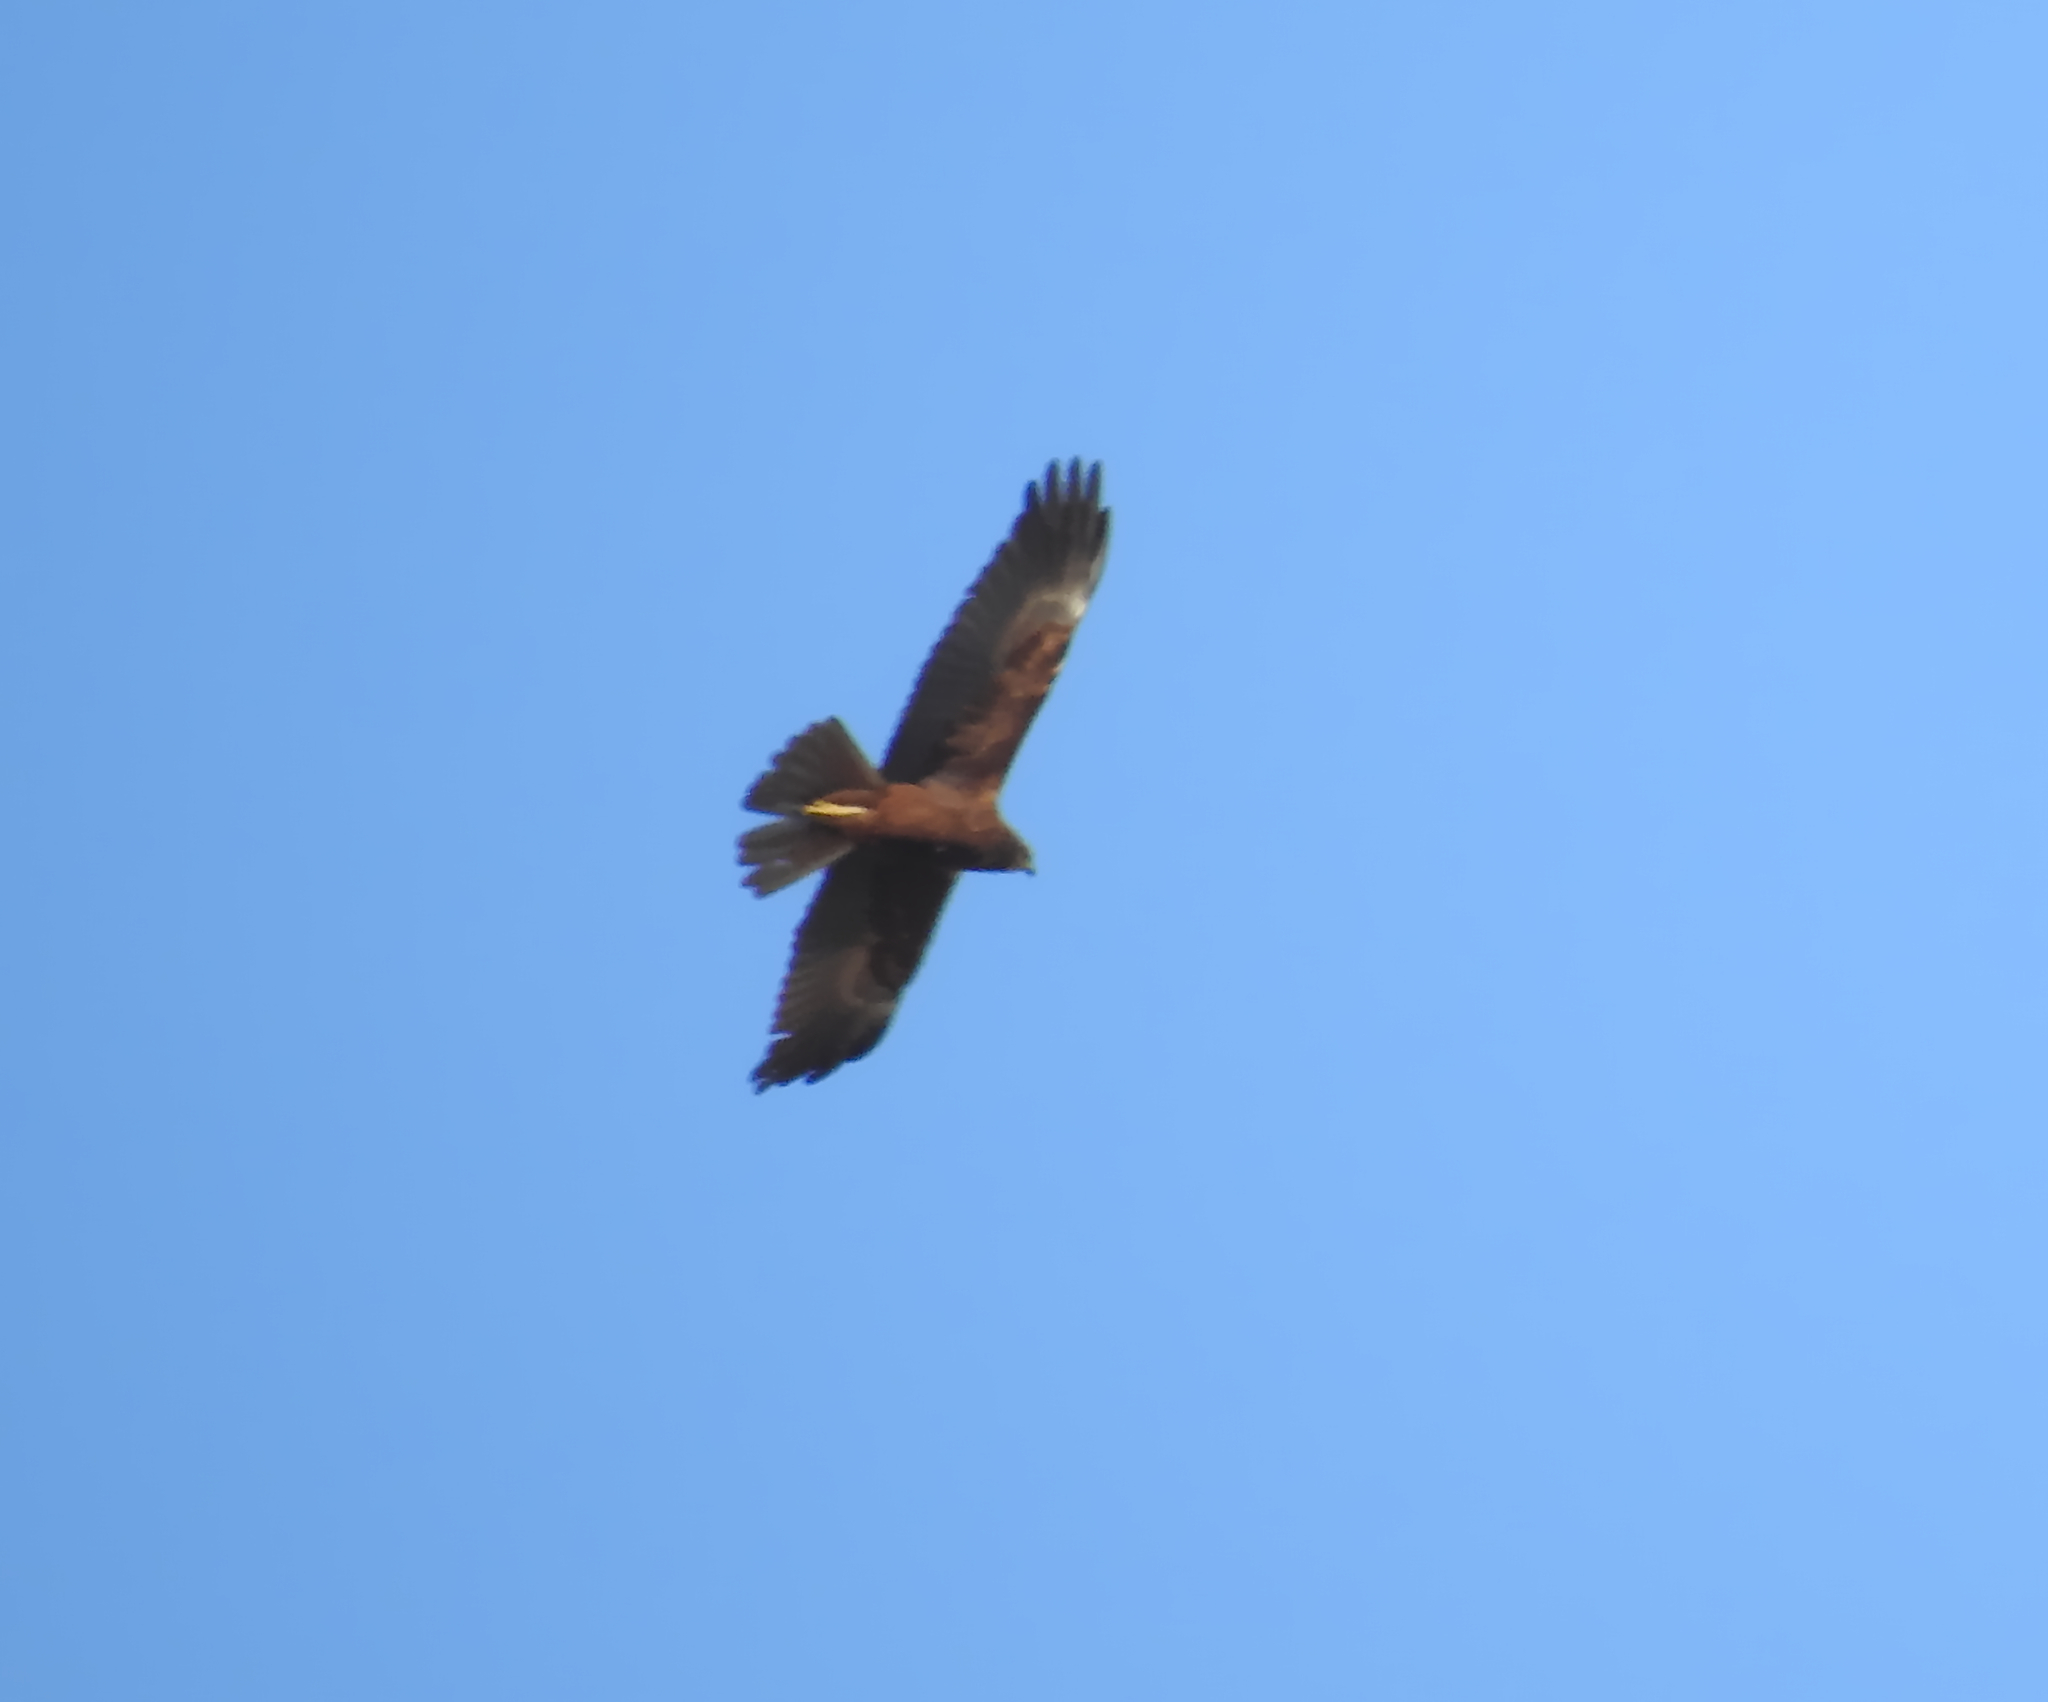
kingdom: Animalia
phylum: Chordata
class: Aves
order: Accipitriformes
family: Accipitridae
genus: Circus
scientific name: Circus aeruginosus
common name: Western marsh harrier
